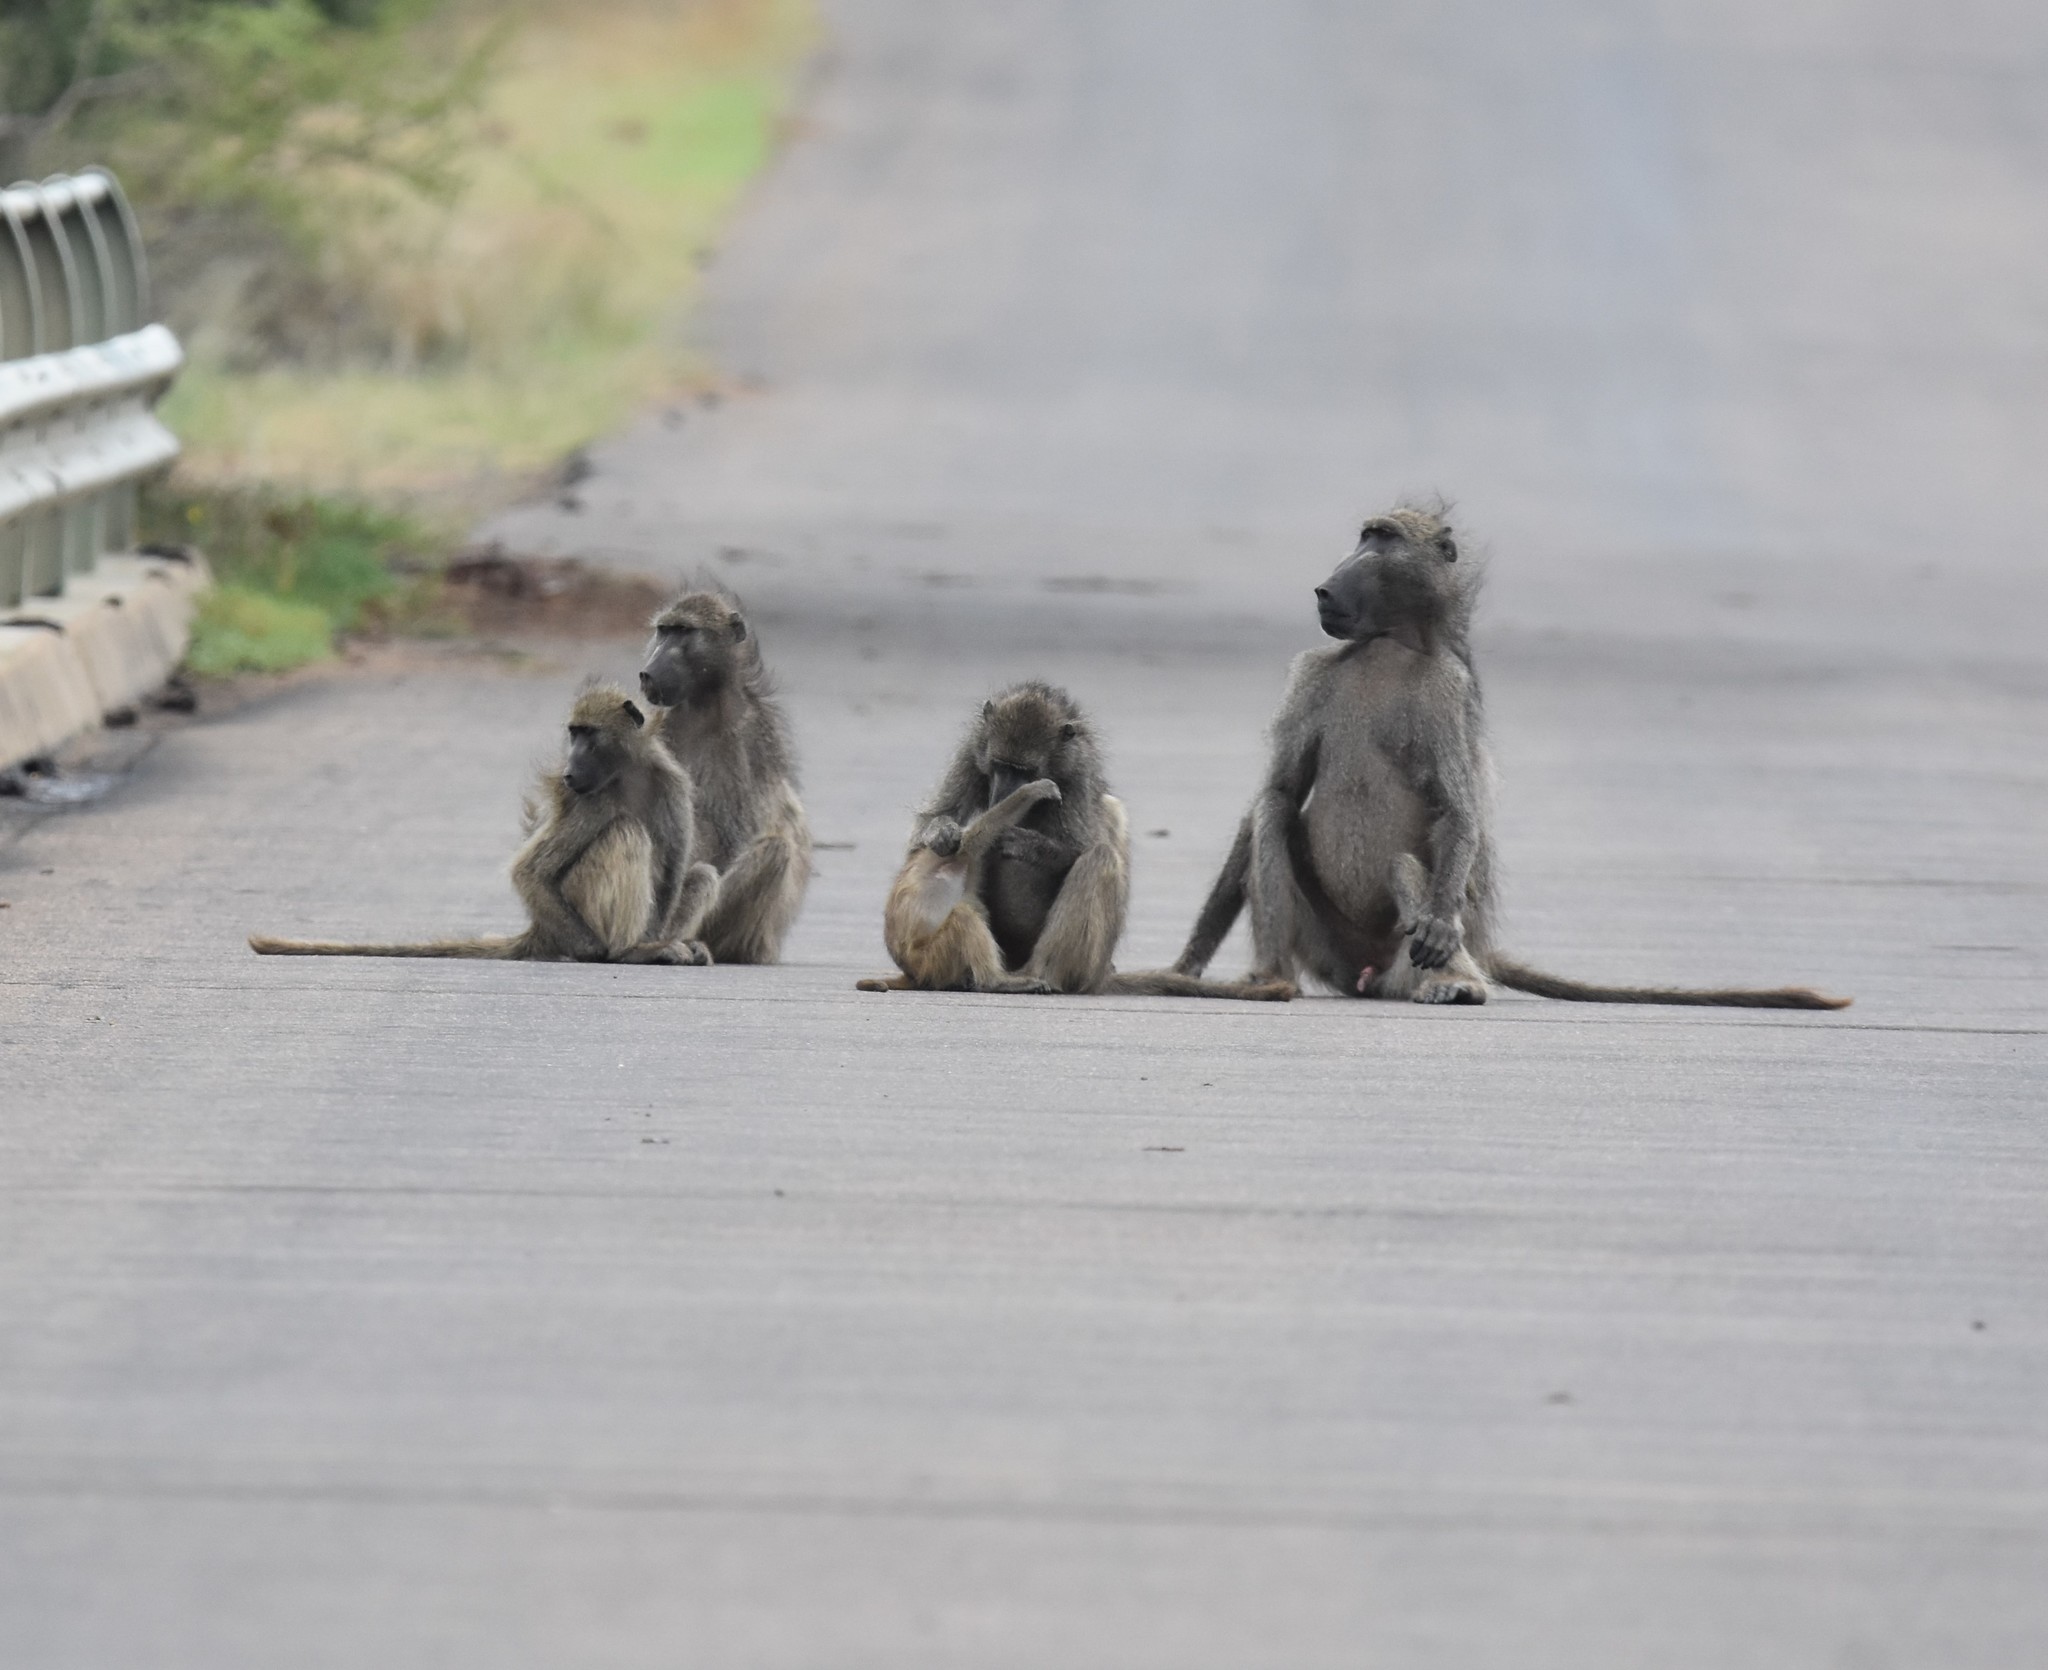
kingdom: Animalia
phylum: Chordata
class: Mammalia
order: Primates
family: Cercopithecidae
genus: Papio
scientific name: Papio ursinus
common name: Chacma baboon
